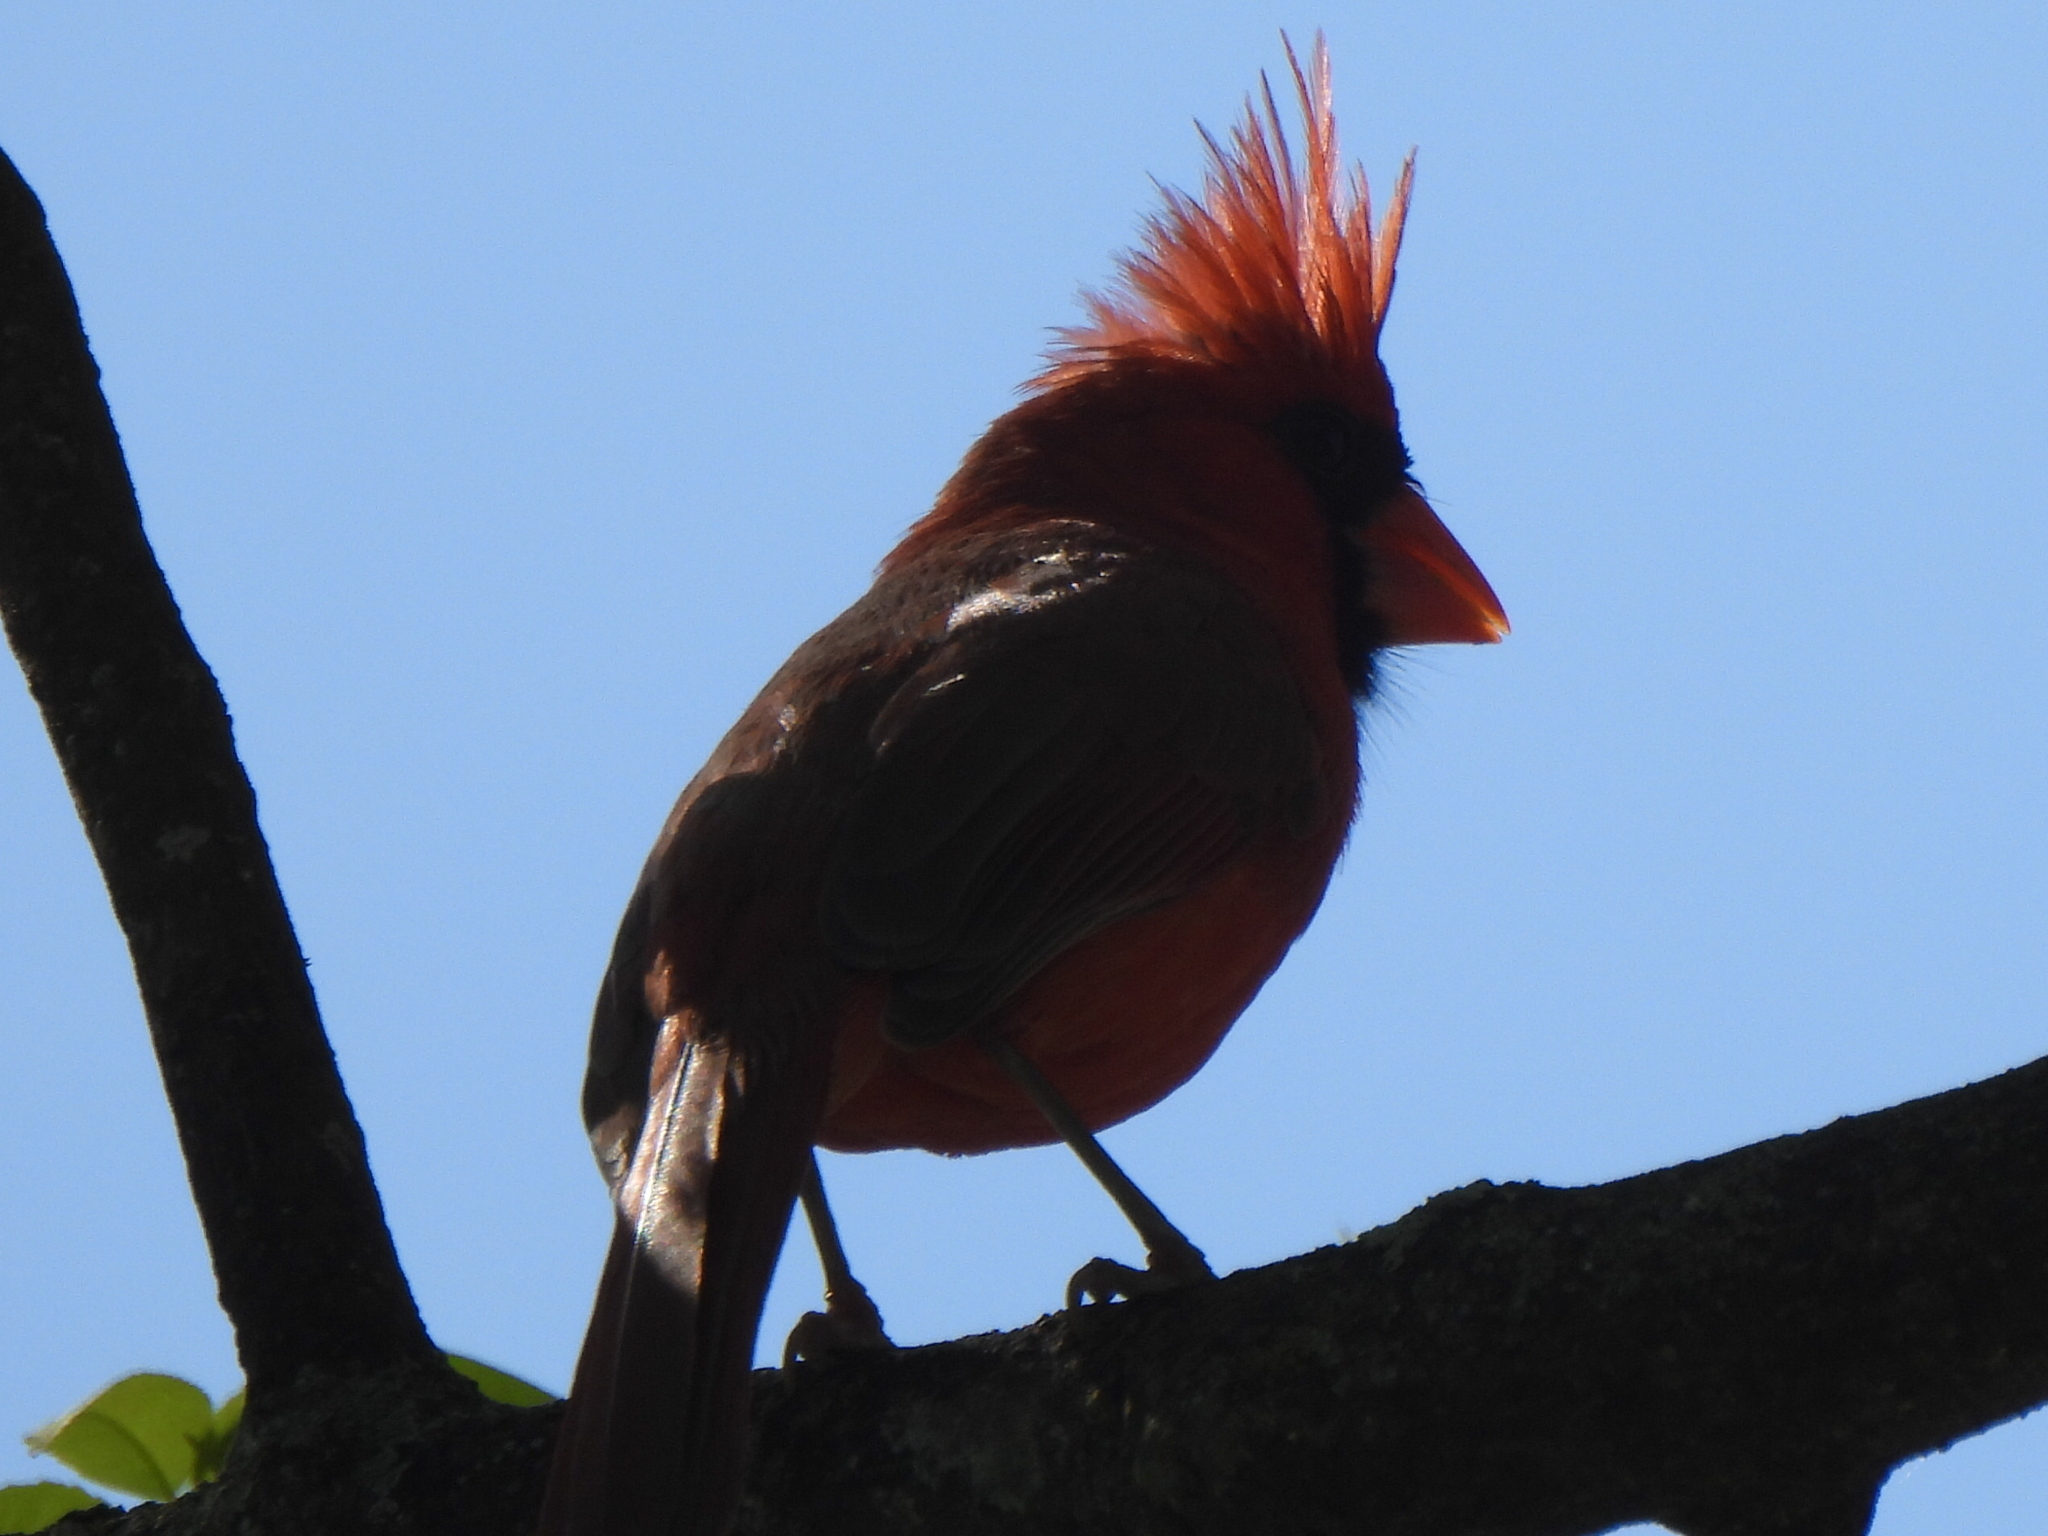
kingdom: Animalia
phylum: Chordata
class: Aves
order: Passeriformes
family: Cardinalidae
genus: Cardinalis
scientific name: Cardinalis cardinalis
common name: Northern cardinal
